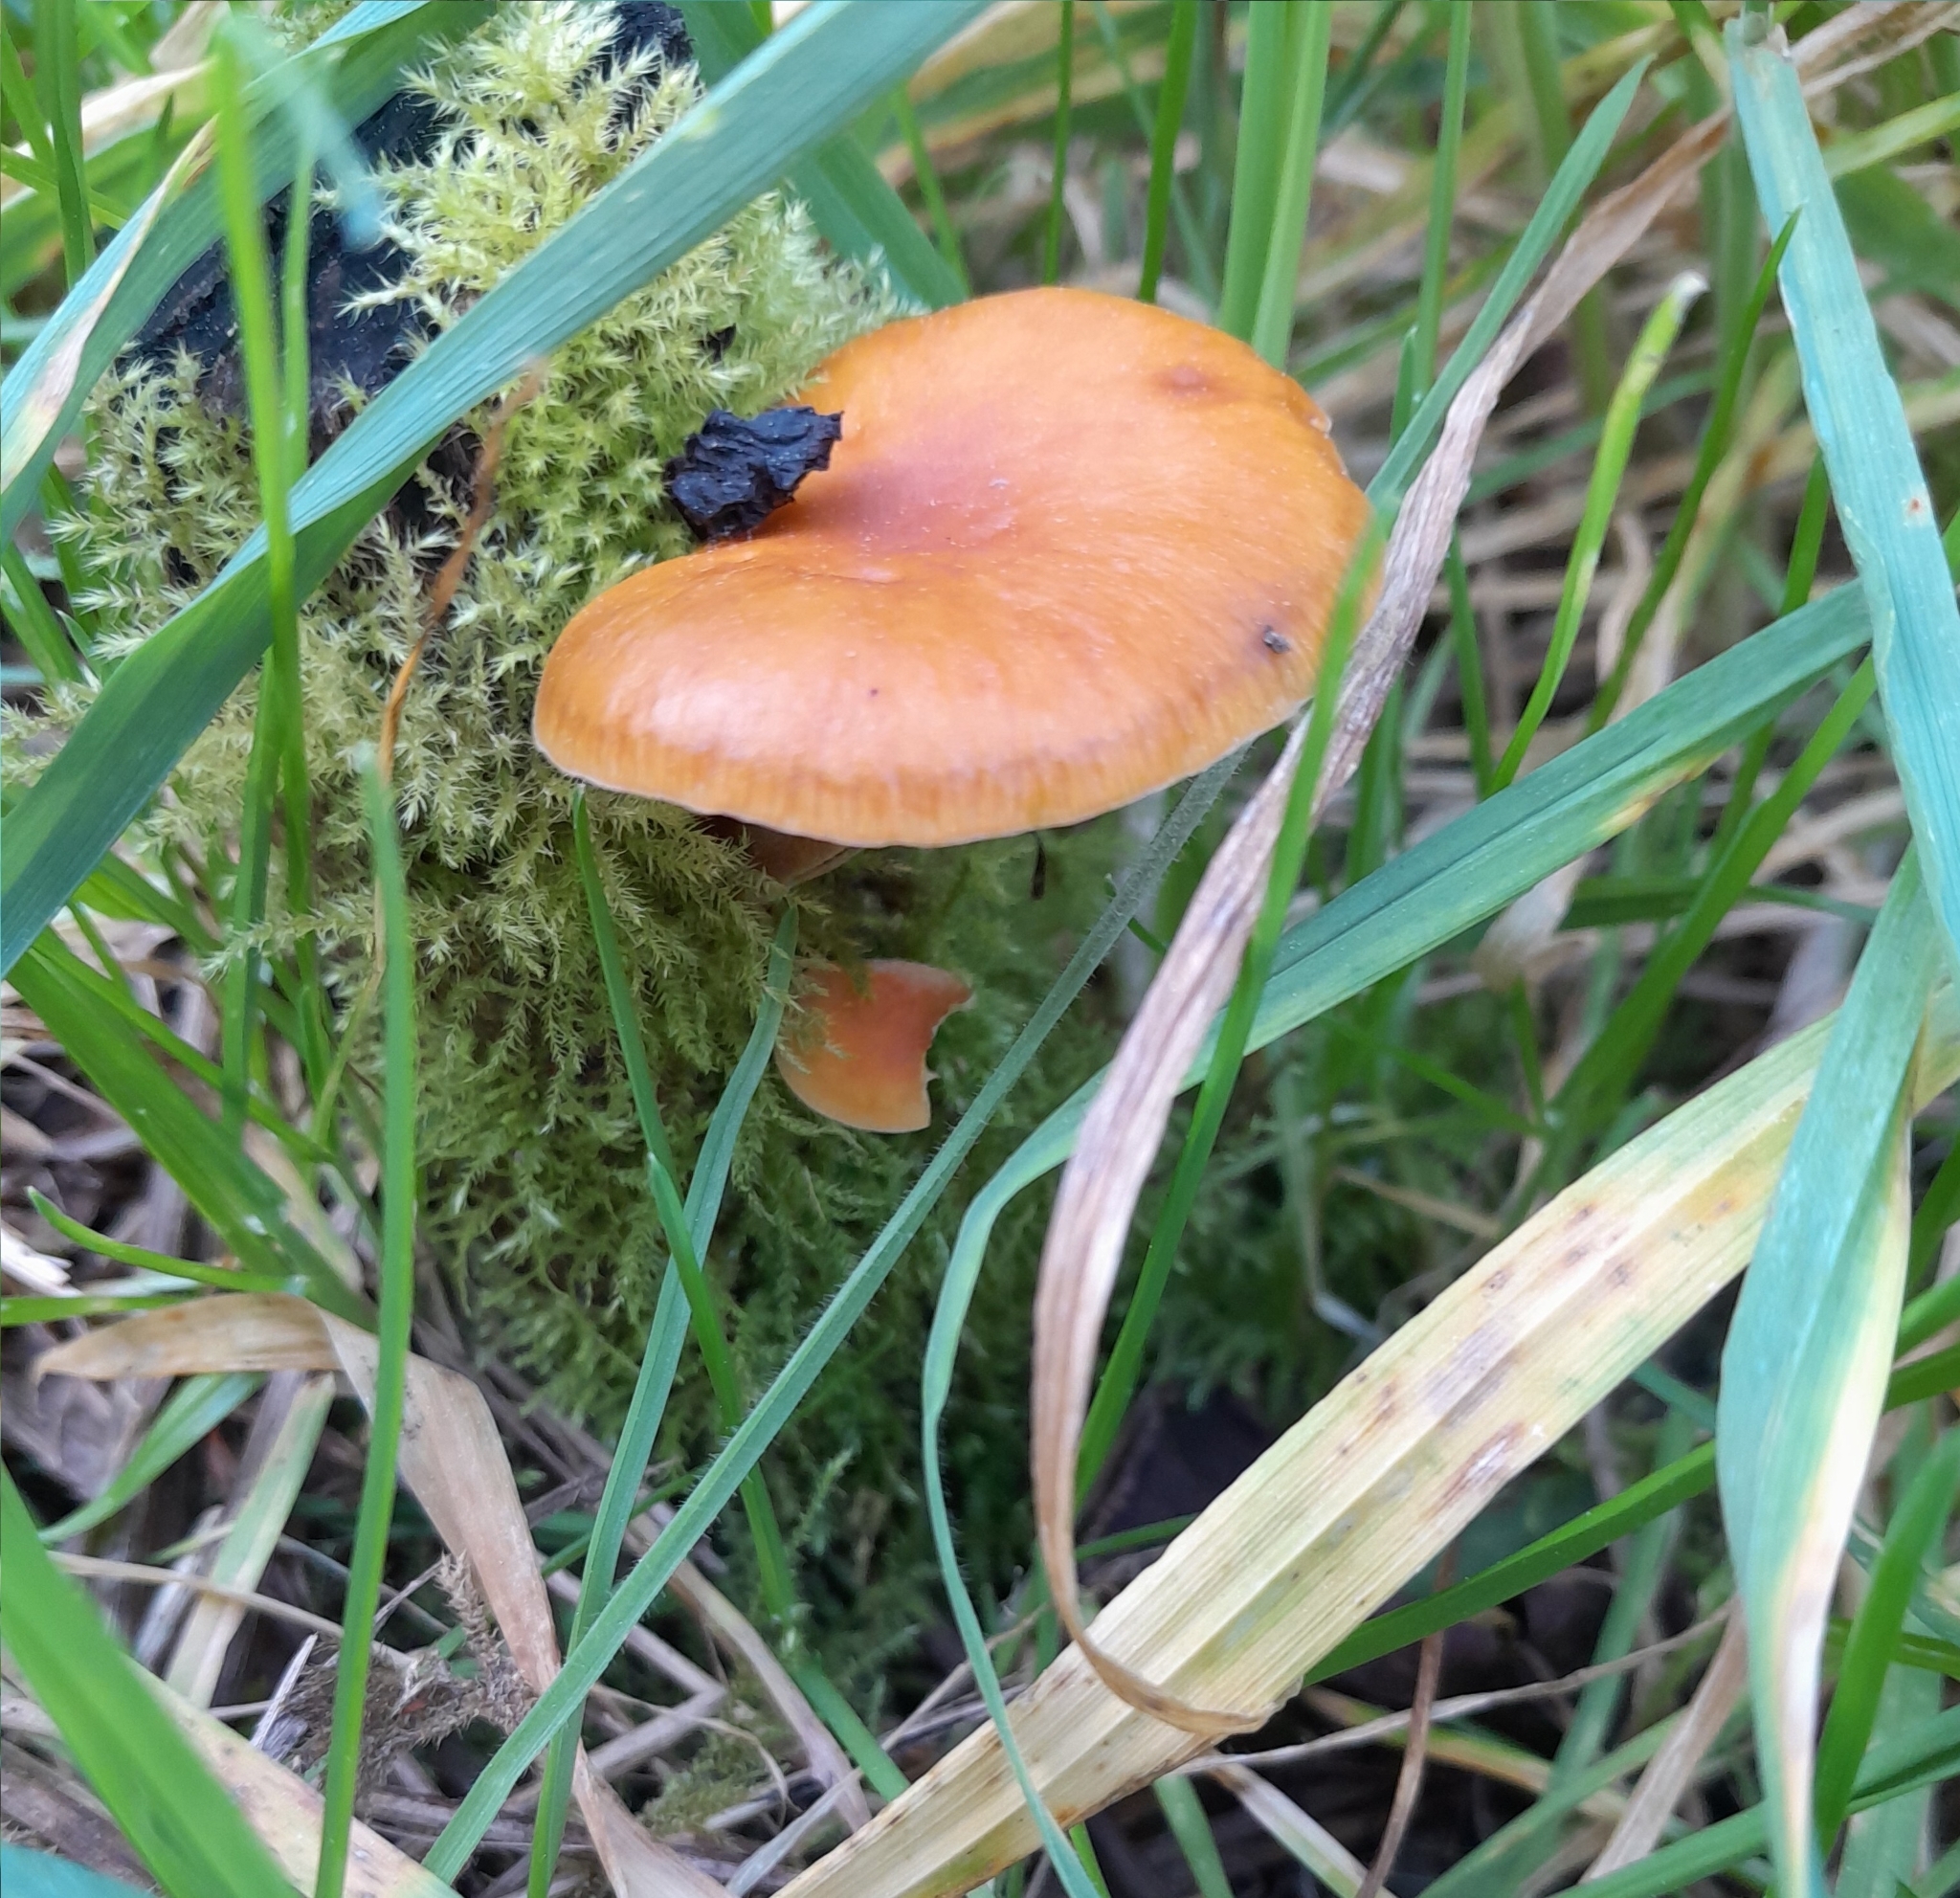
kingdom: Fungi
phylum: Basidiomycota
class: Agaricomycetes
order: Agaricales
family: Physalacriaceae
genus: Flammulina
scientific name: Flammulina velutipes
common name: Velvet shank
